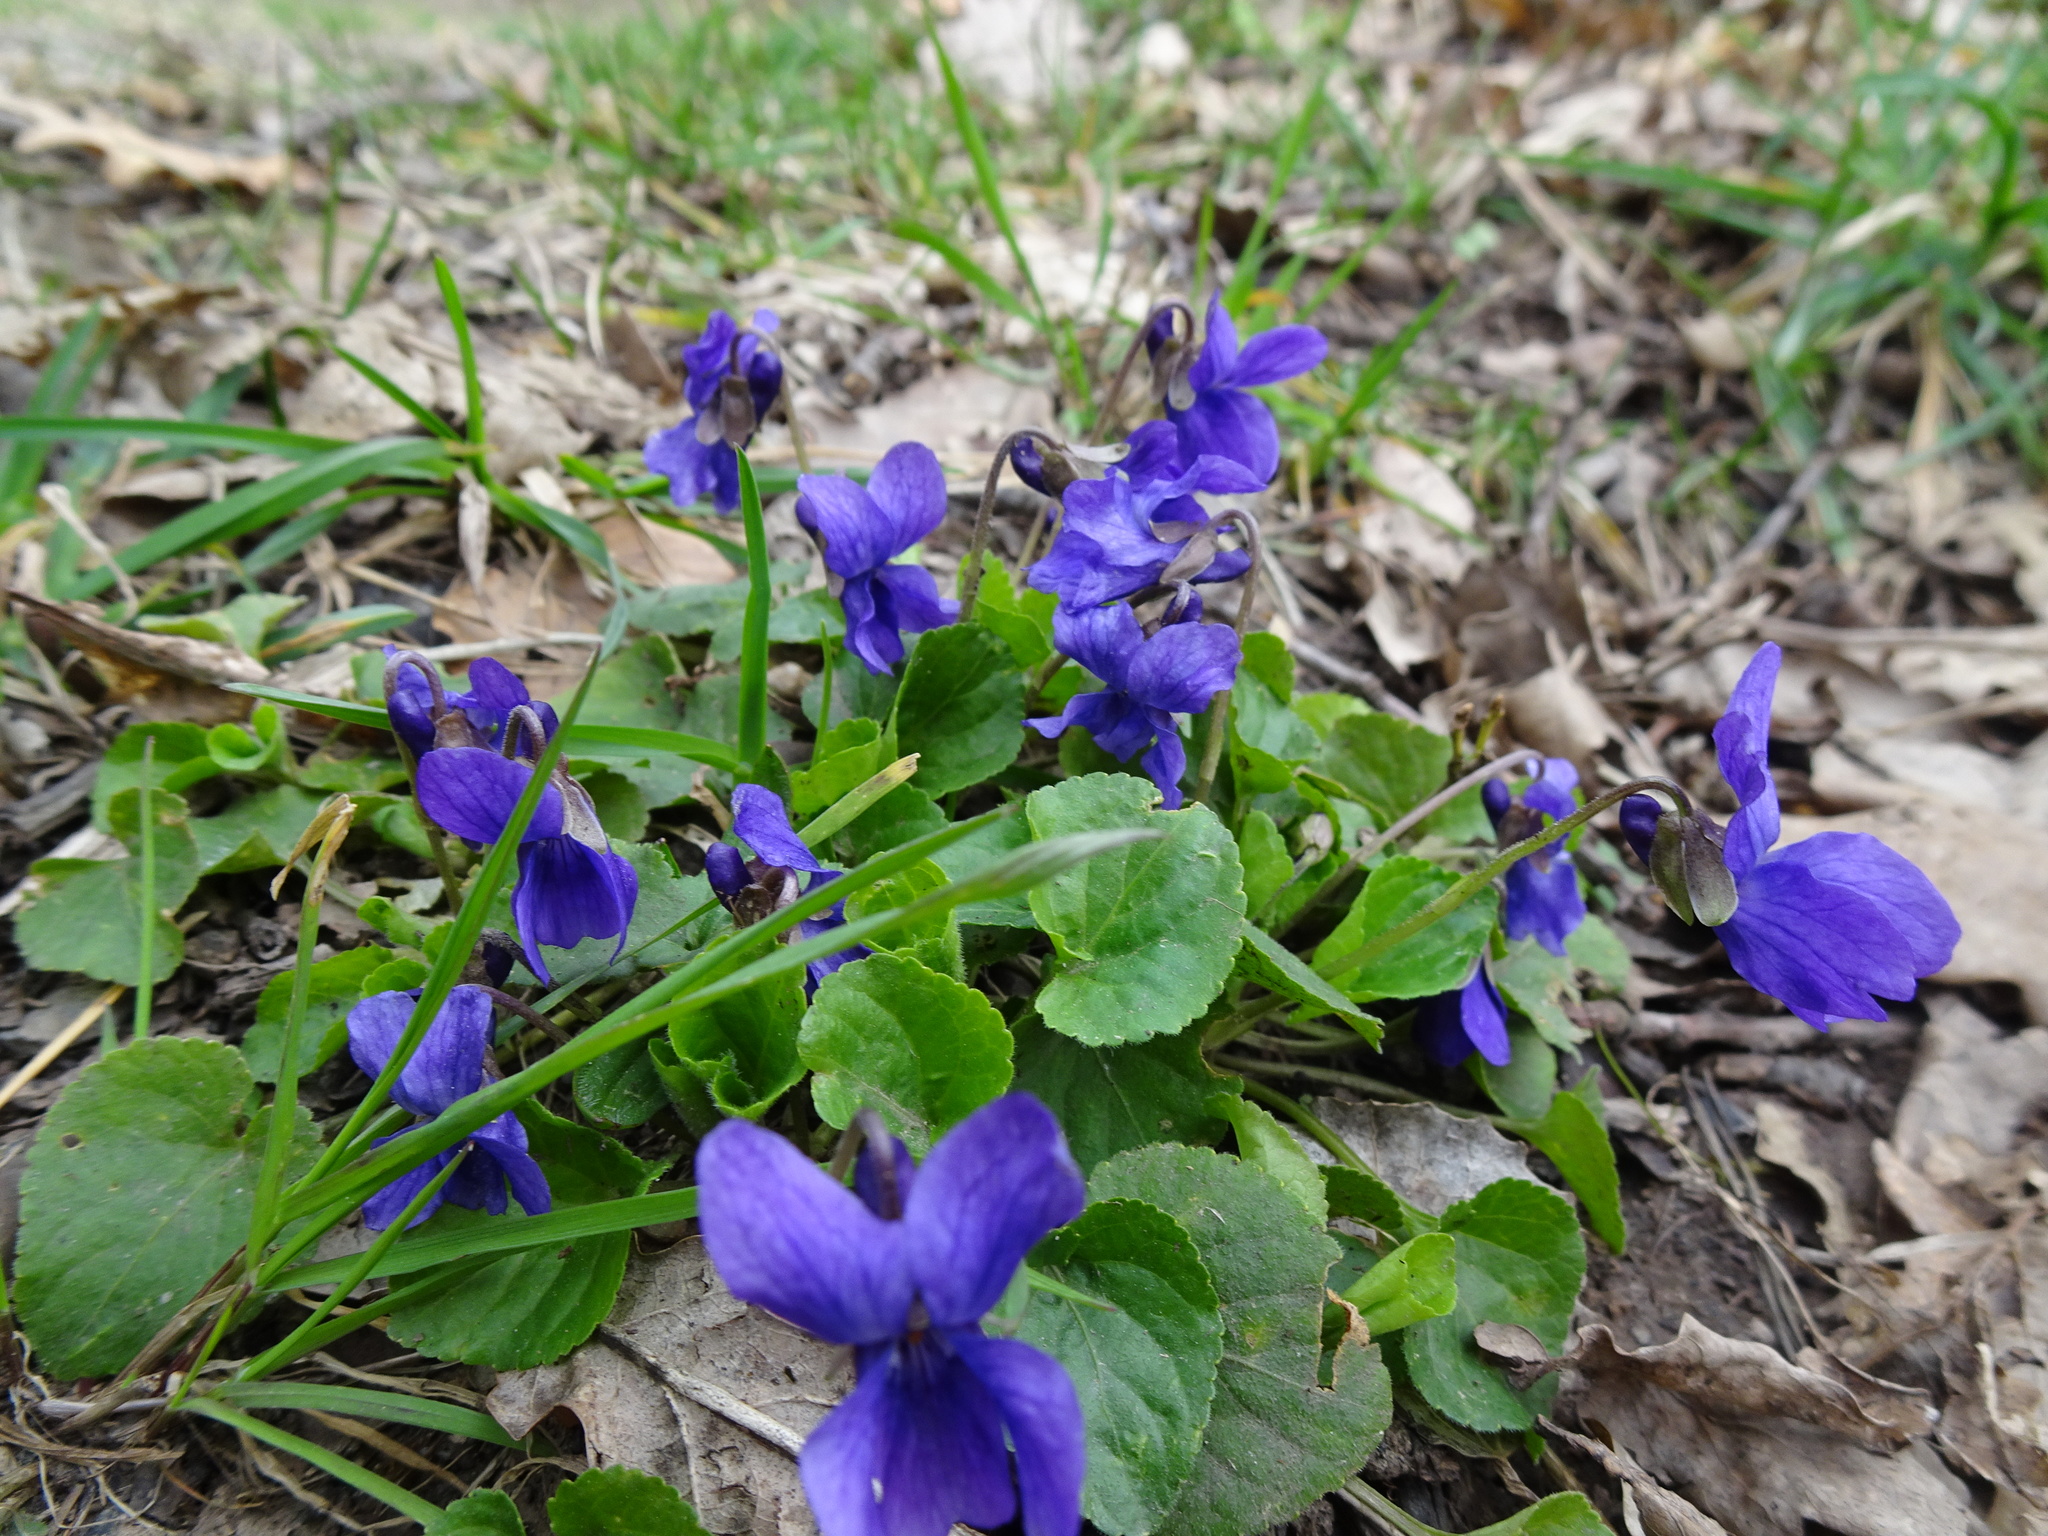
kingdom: Plantae
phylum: Tracheophyta
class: Magnoliopsida
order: Malpighiales
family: Violaceae
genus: Viola
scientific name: Viola odorata
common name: Sweet violet
